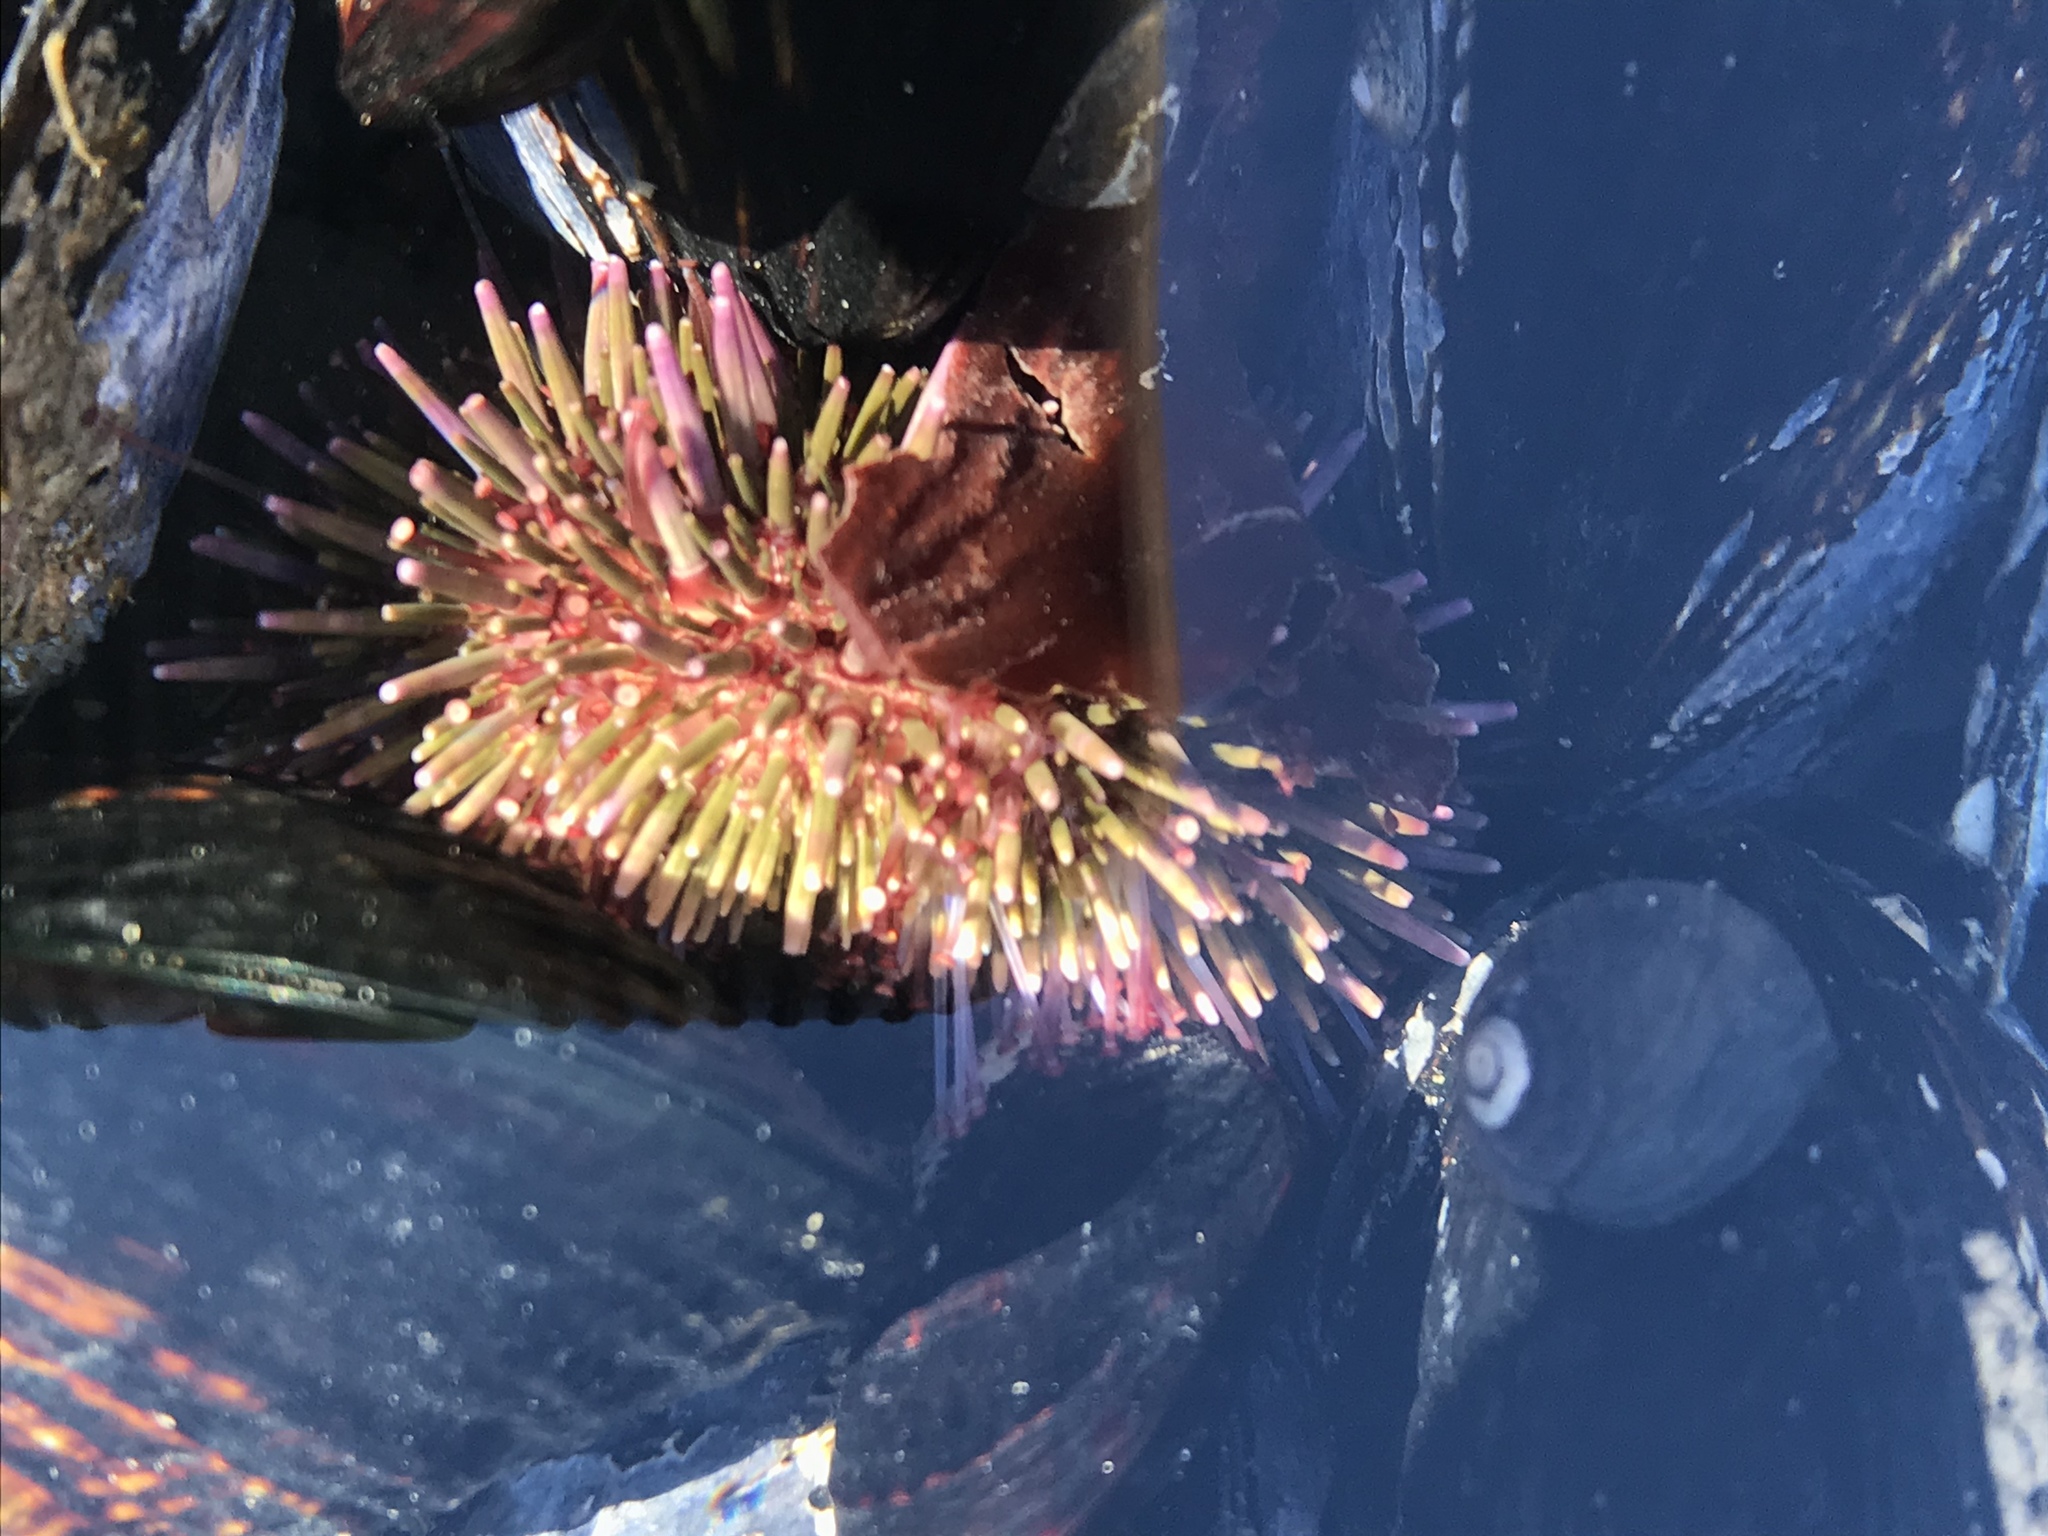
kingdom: Animalia
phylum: Echinodermata
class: Echinoidea
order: Camarodonta
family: Strongylocentrotidae
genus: Strongylocentrotus
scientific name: Strongylocentrotus purpuratus
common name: Purple sea urchin
